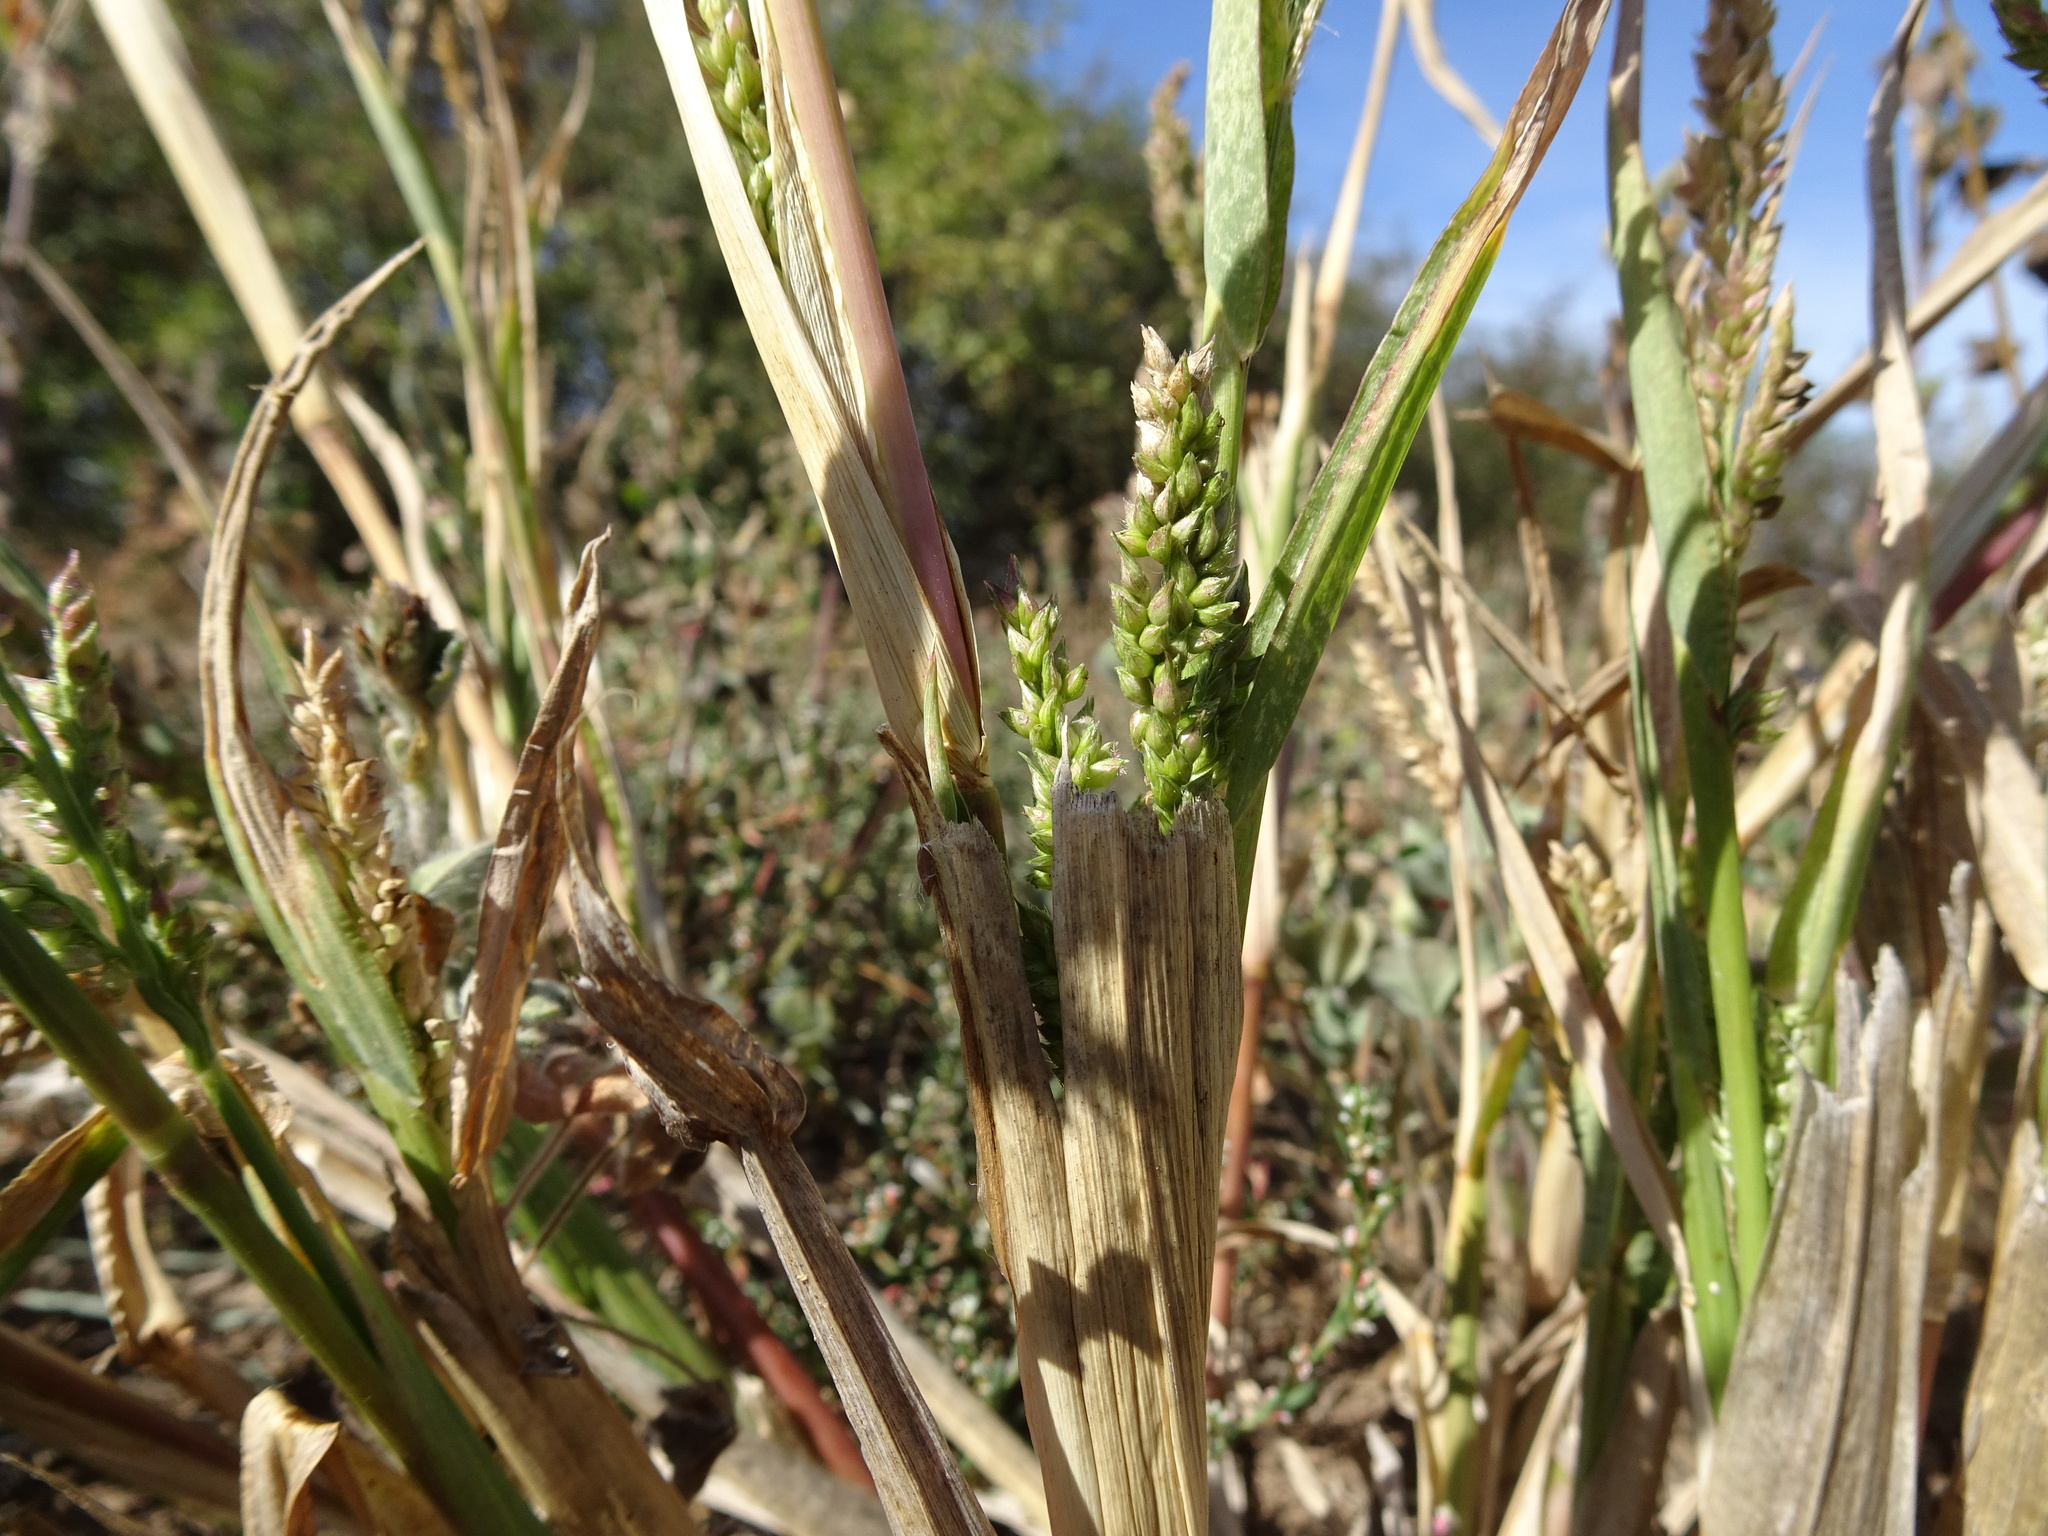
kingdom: Plantae
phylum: Tracheophyta
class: Liliopsida
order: Poales
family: Poaceae
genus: Echinochloa
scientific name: Echinochloa crus-galli
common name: Cockspur
